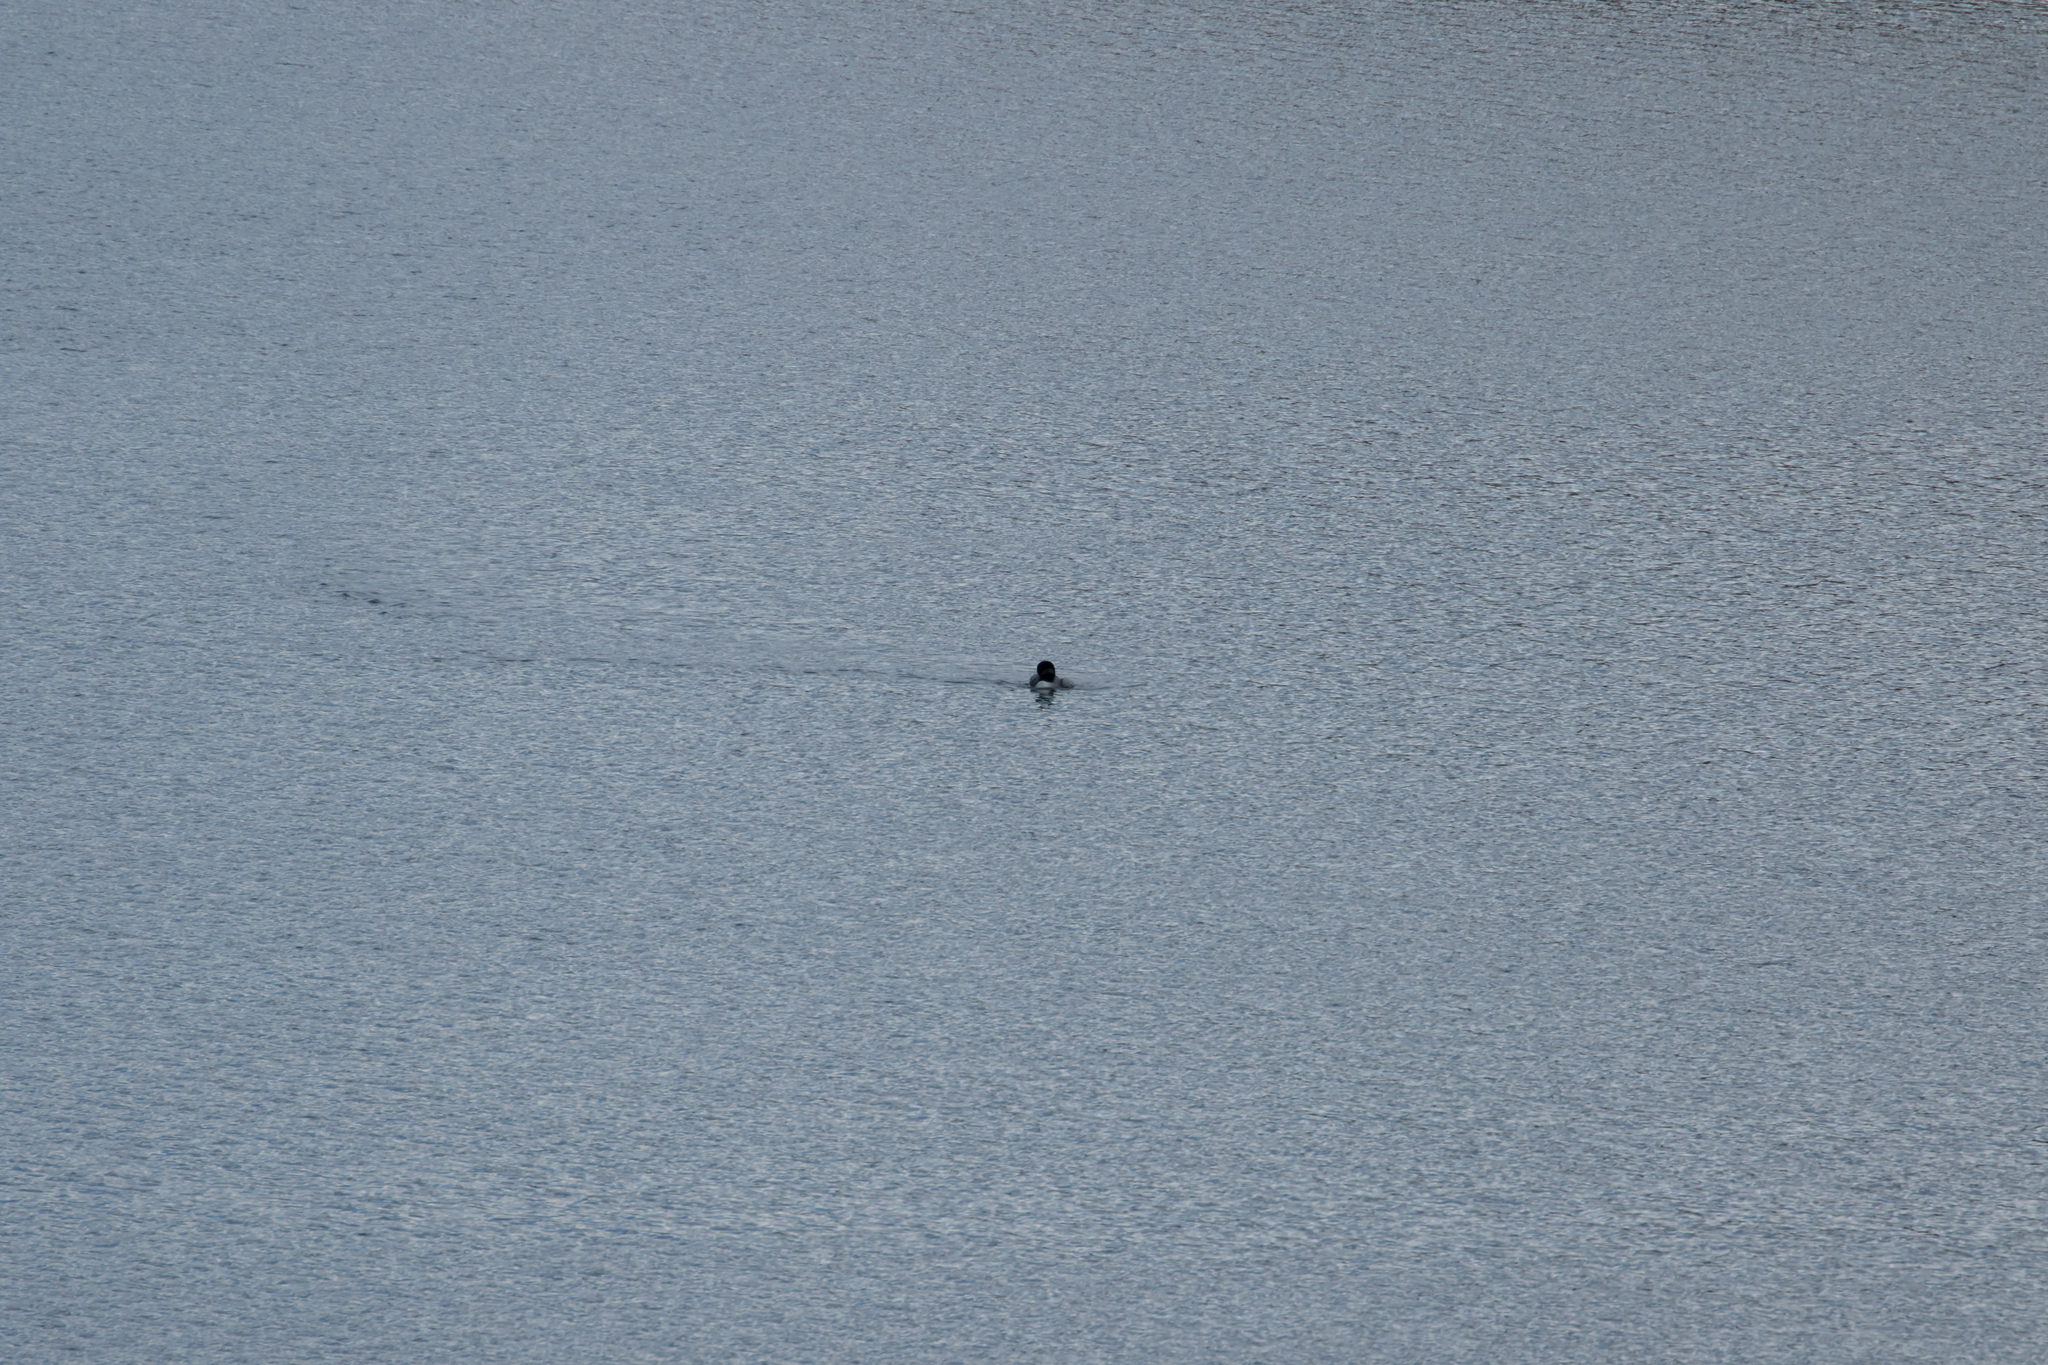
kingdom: Animalia
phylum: Chordata
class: Aves
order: Gaviiformes
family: Gaviidae
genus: Gavia
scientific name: Gavia immer
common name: Common loon
